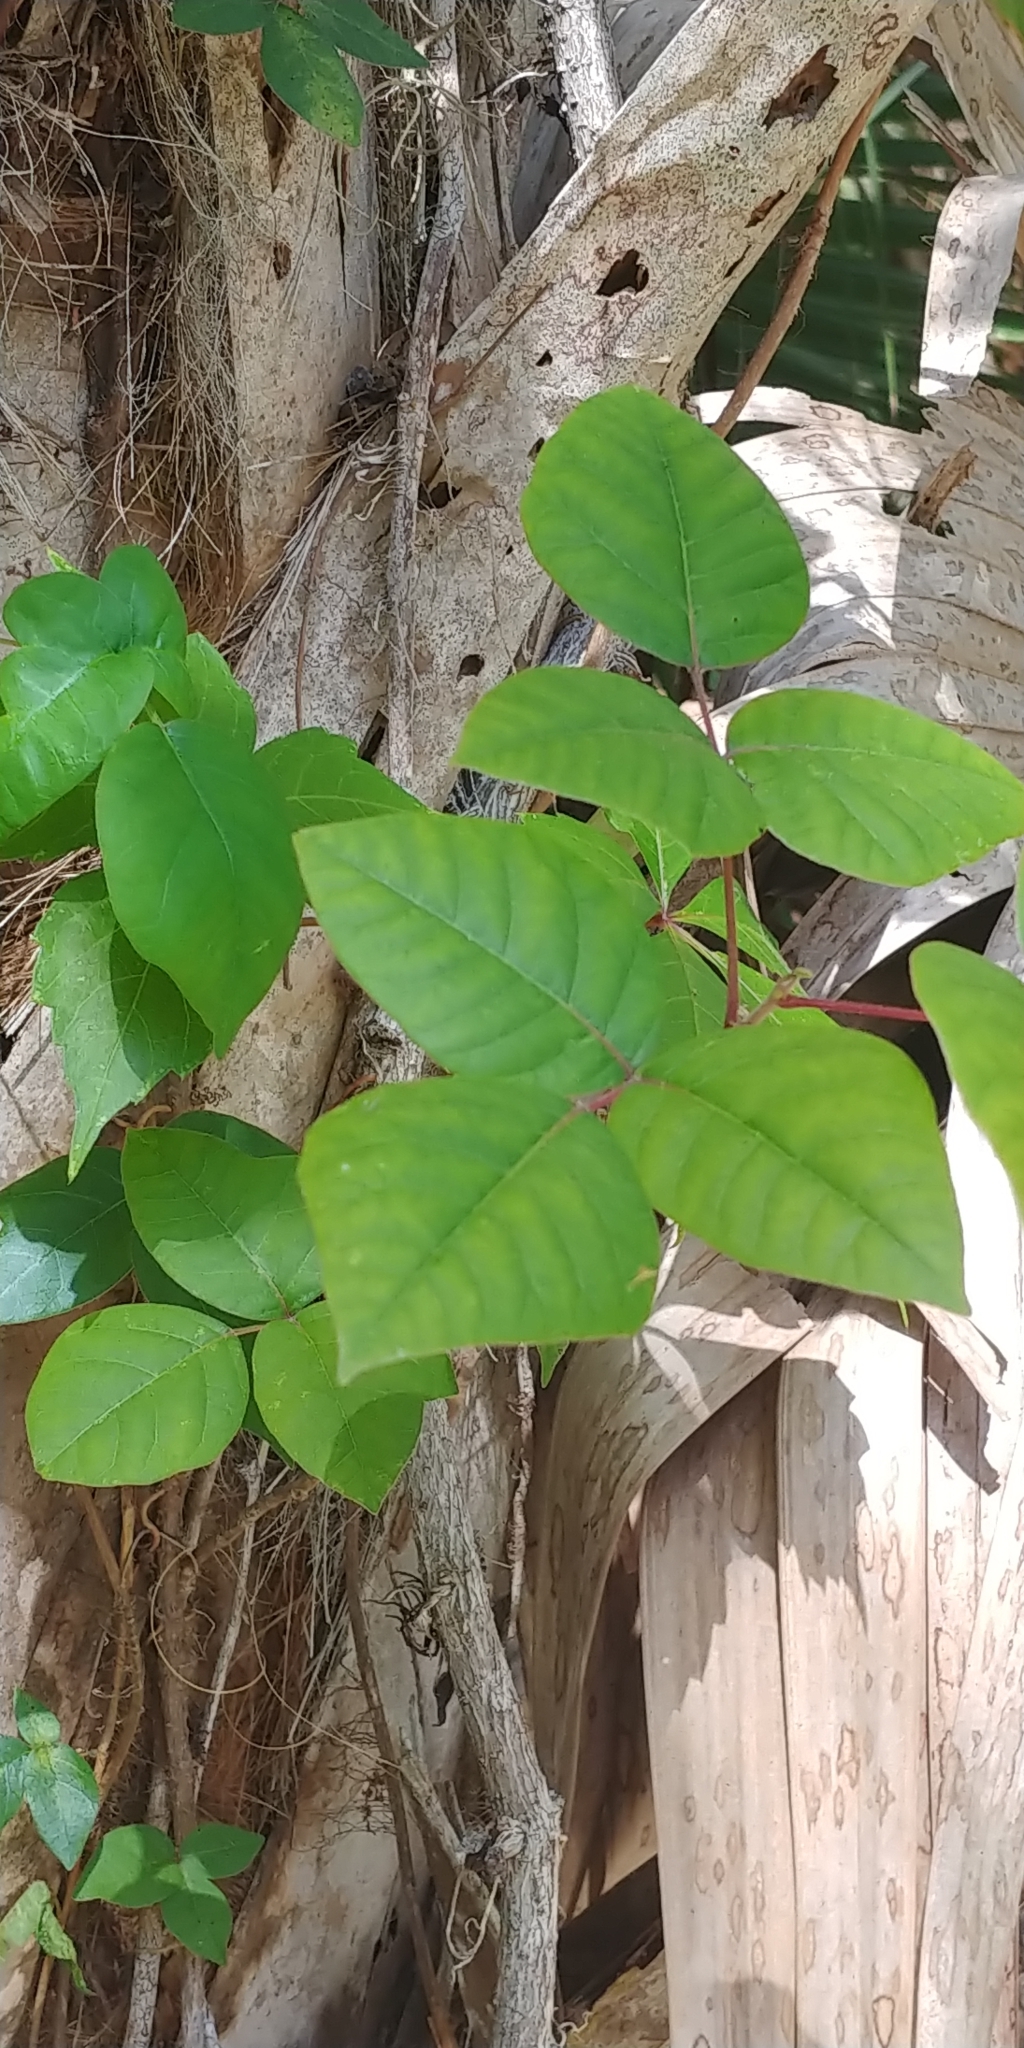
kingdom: Plantae
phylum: Tracheophyta
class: Magnoliopsida
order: Sapindales
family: Anacardiaceae
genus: Toxicodendron
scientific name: Toxicodendron radicans
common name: Poison ivy
